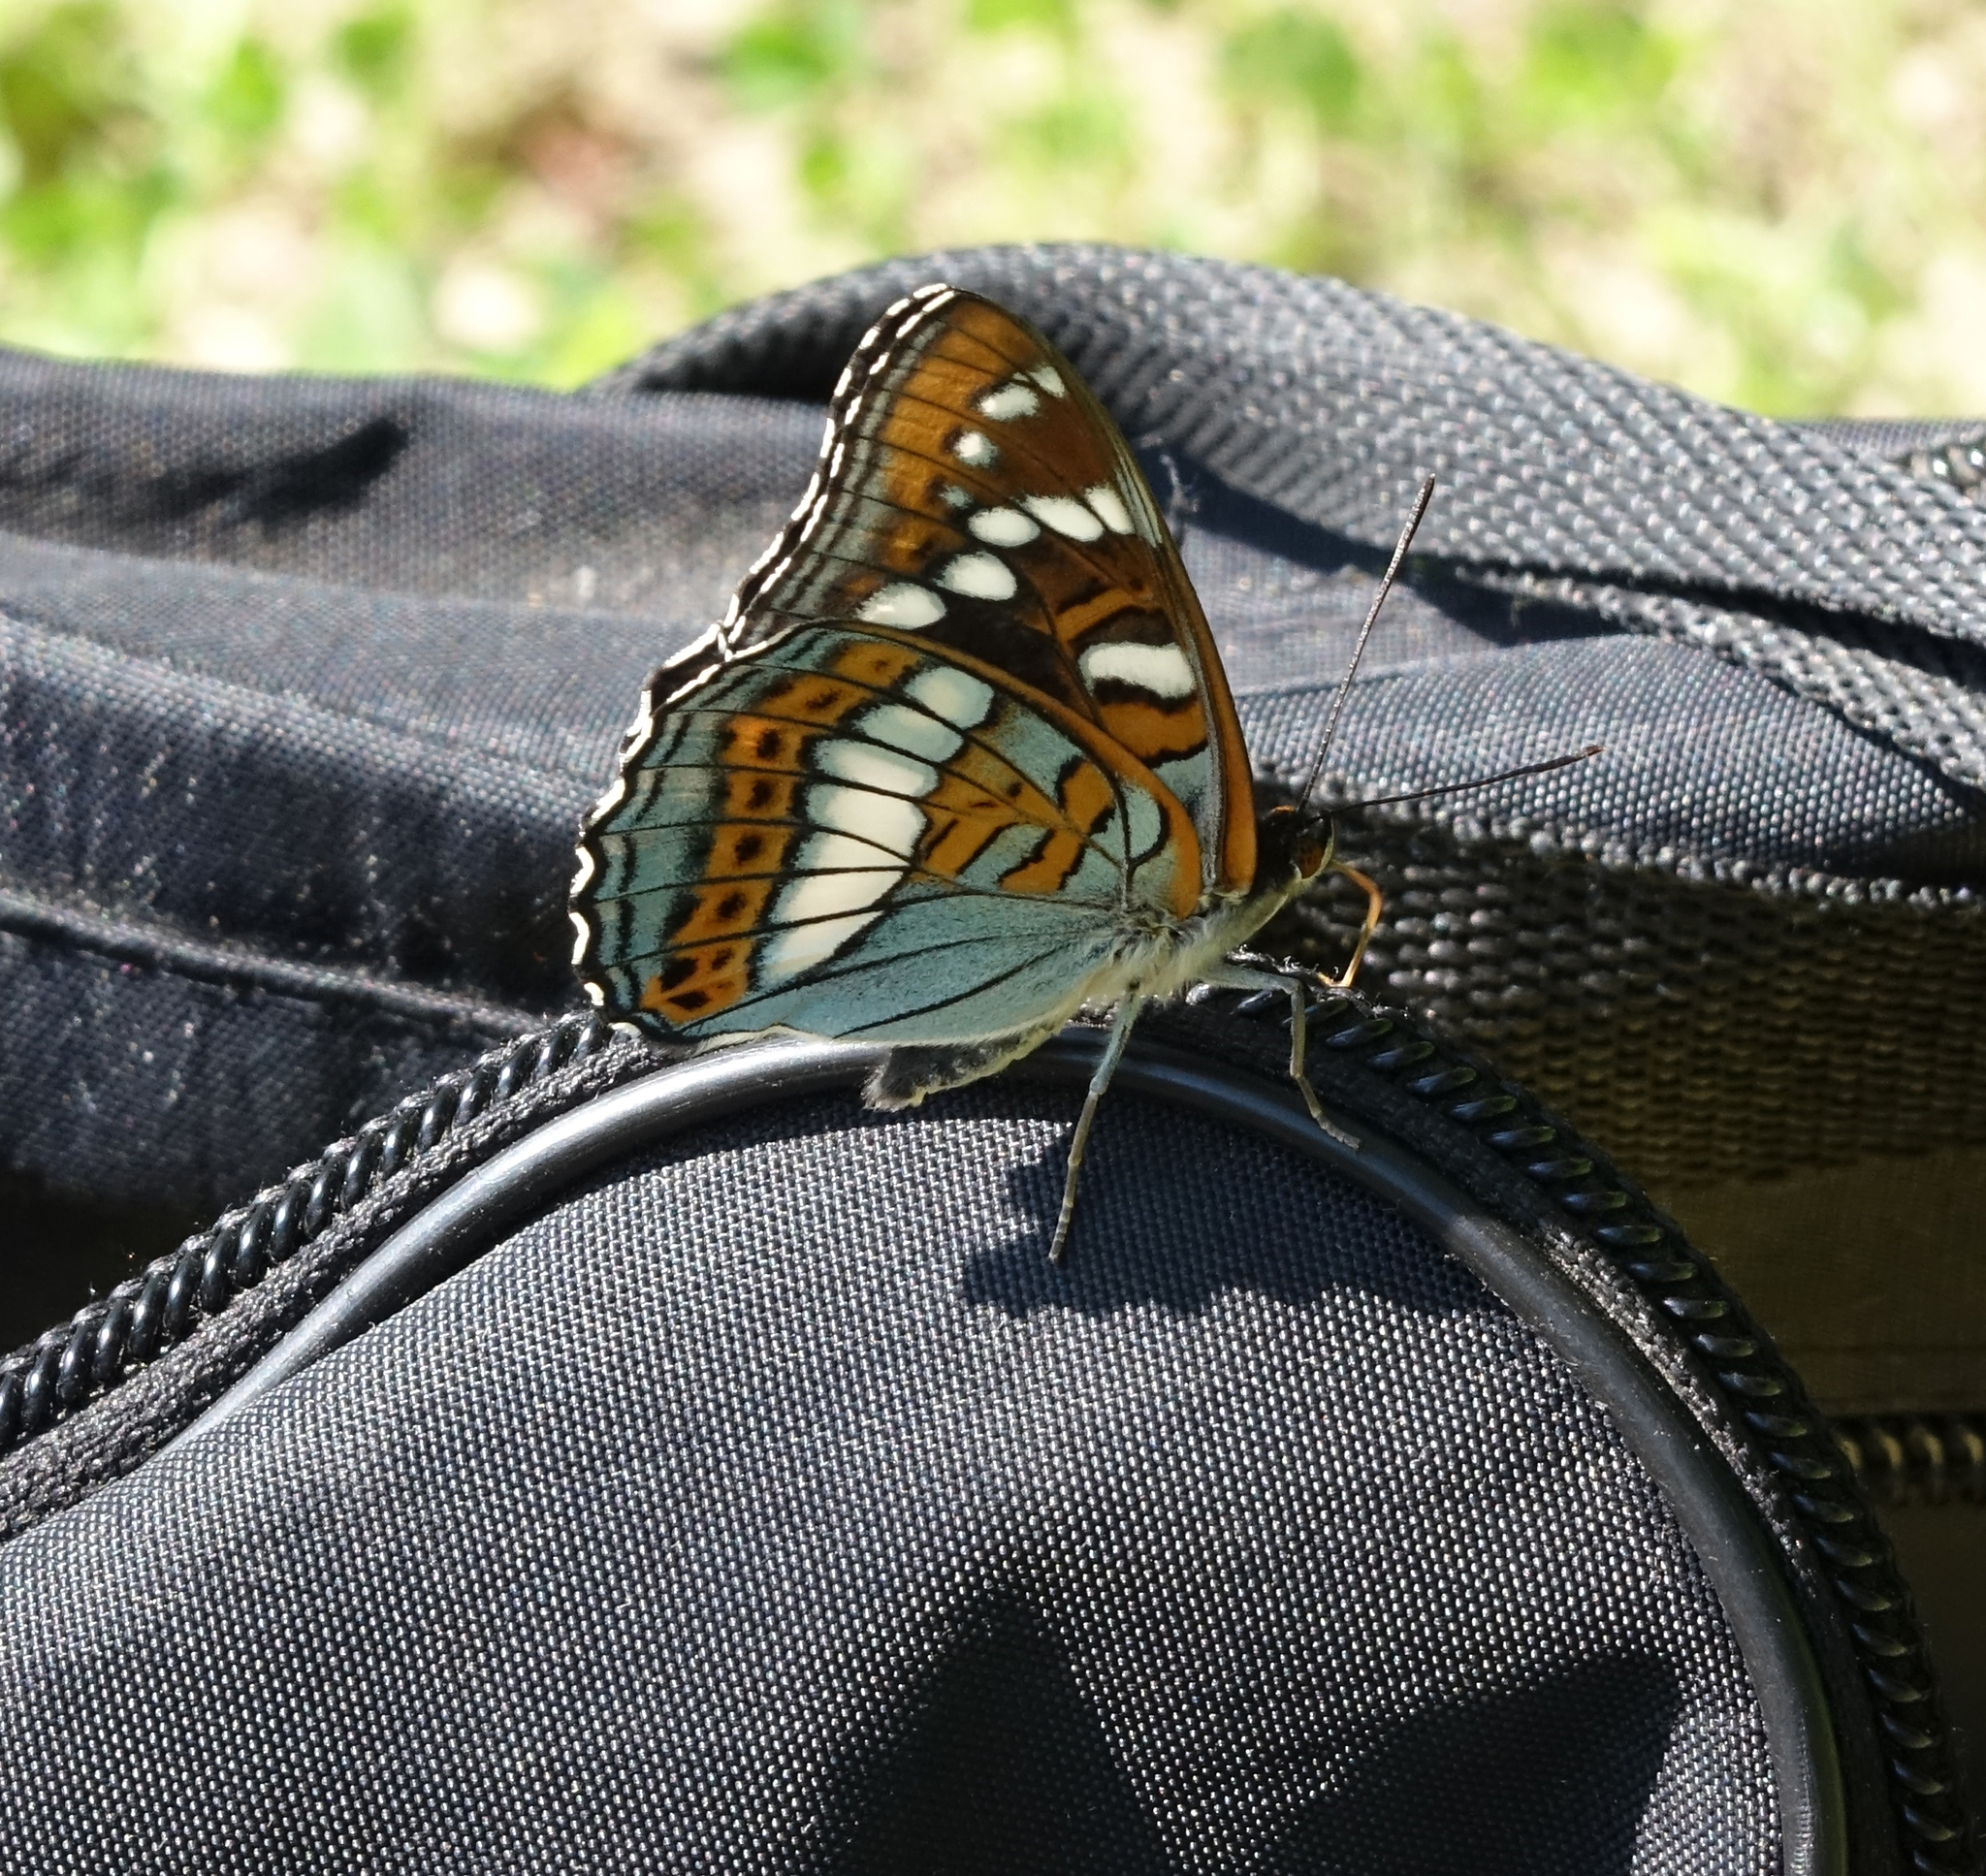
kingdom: Animalia
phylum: Arthropoda
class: Insecta
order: Lepidoptera
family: Nymphalidae
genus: Limenitis
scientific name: Limenitis populi
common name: Poplar admiral
